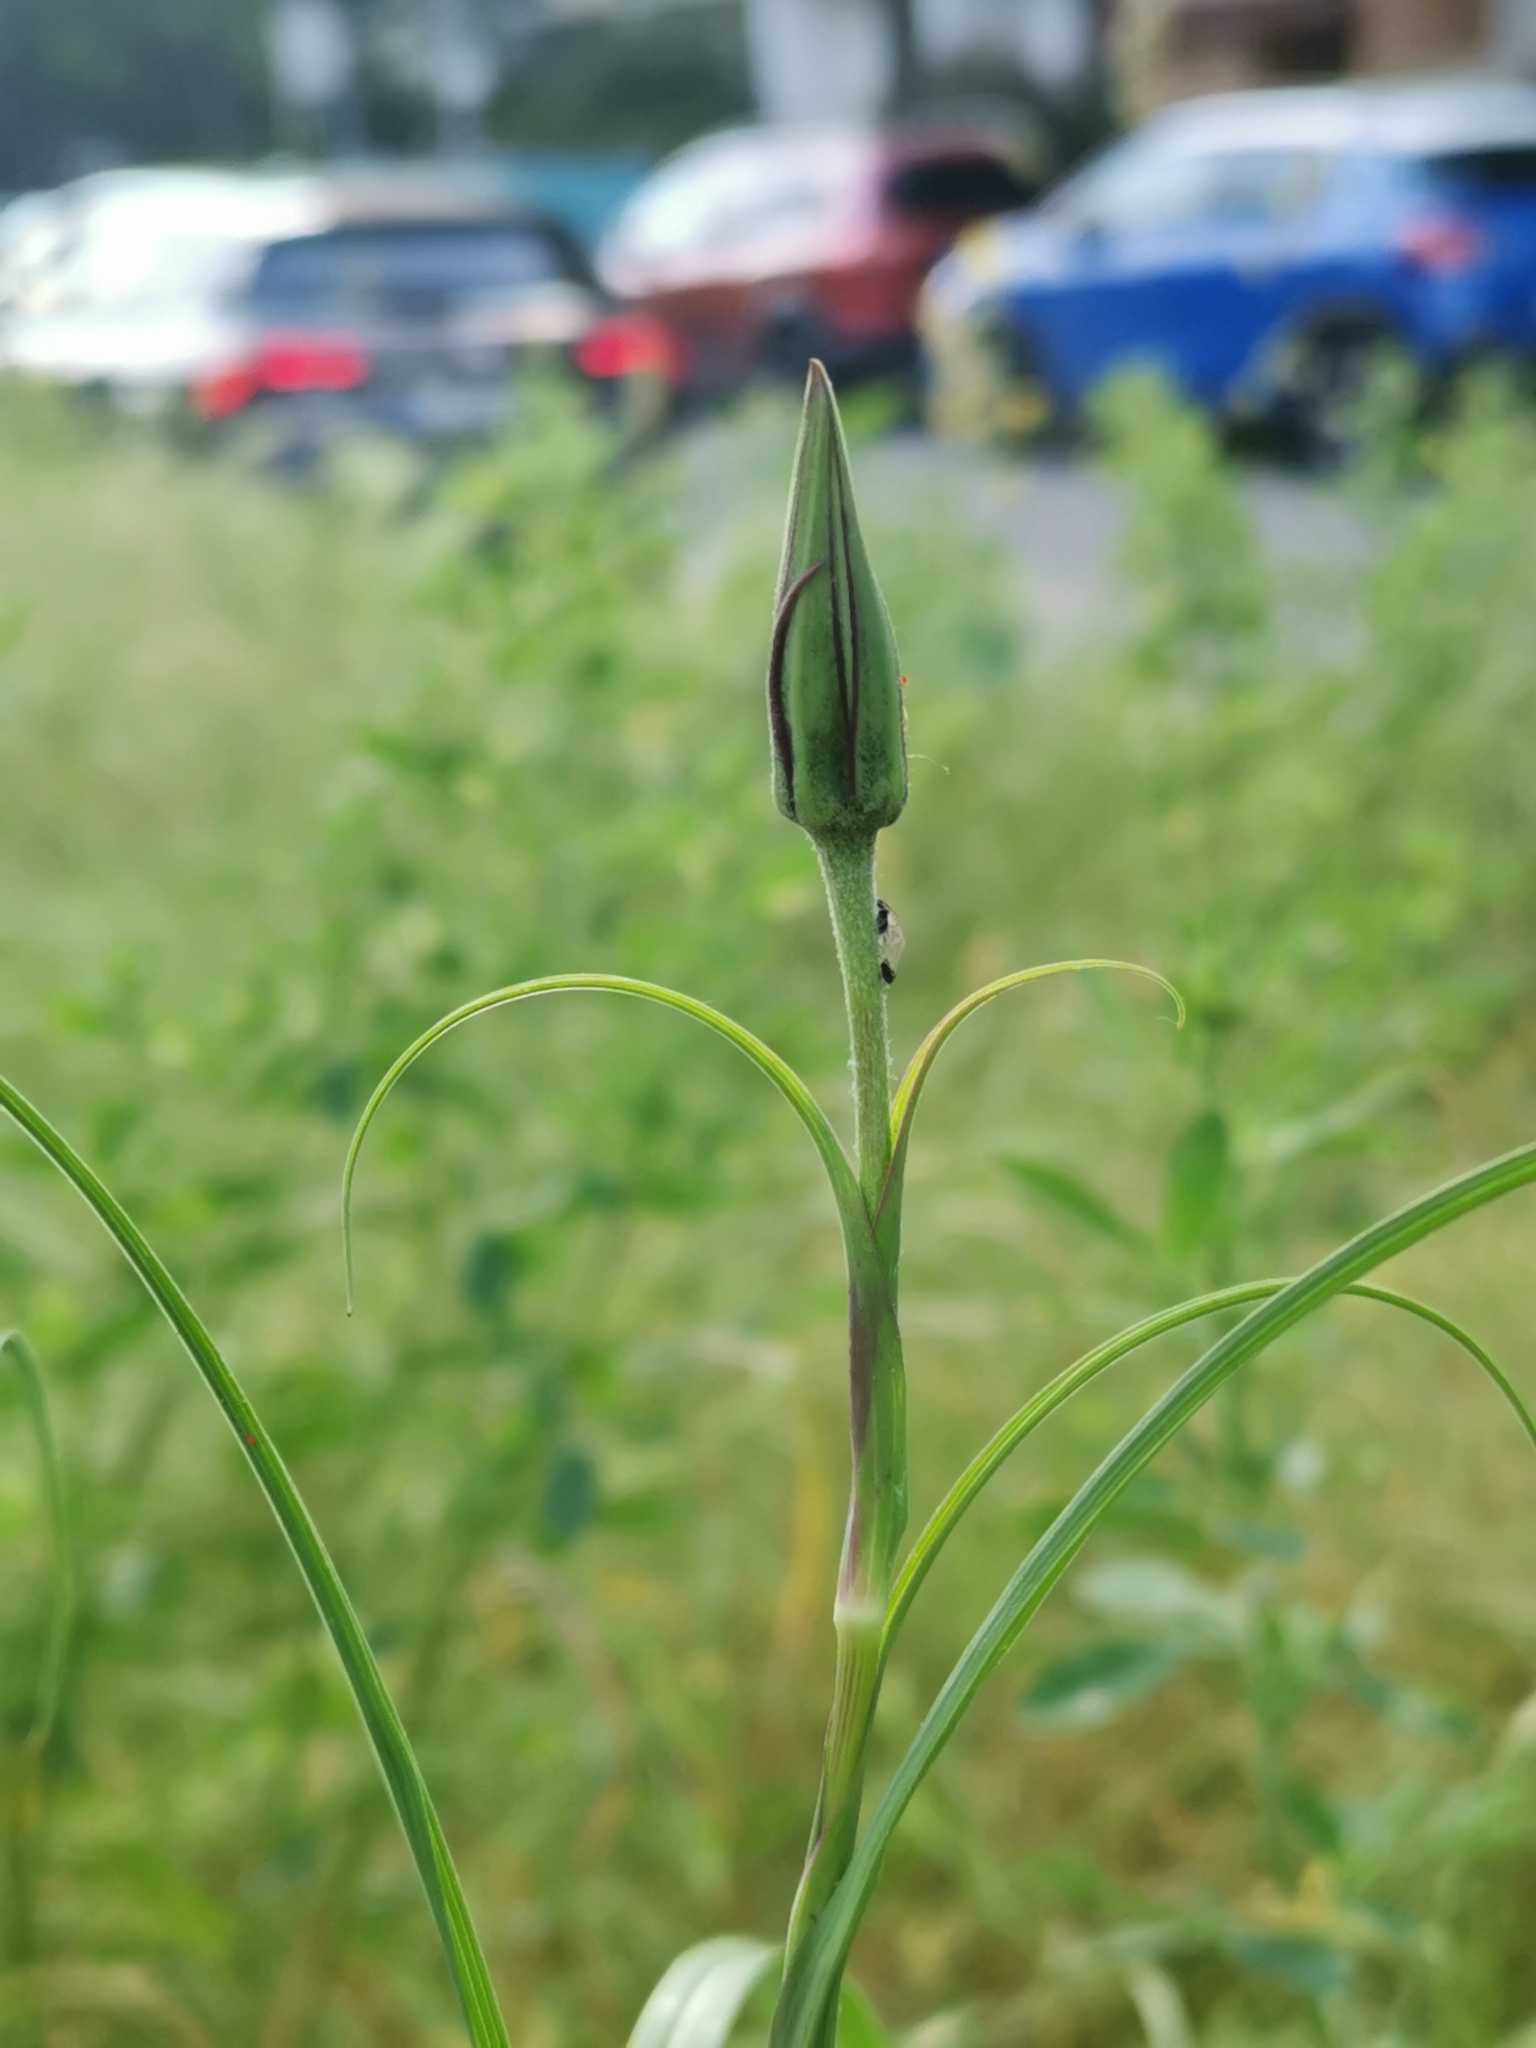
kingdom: Plantae
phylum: Tracheophyta
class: Magnoliopsida
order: Asterales
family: Asteraceae
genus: Tragopogon
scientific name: Tragopogon pratensis
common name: Goat's-beard
